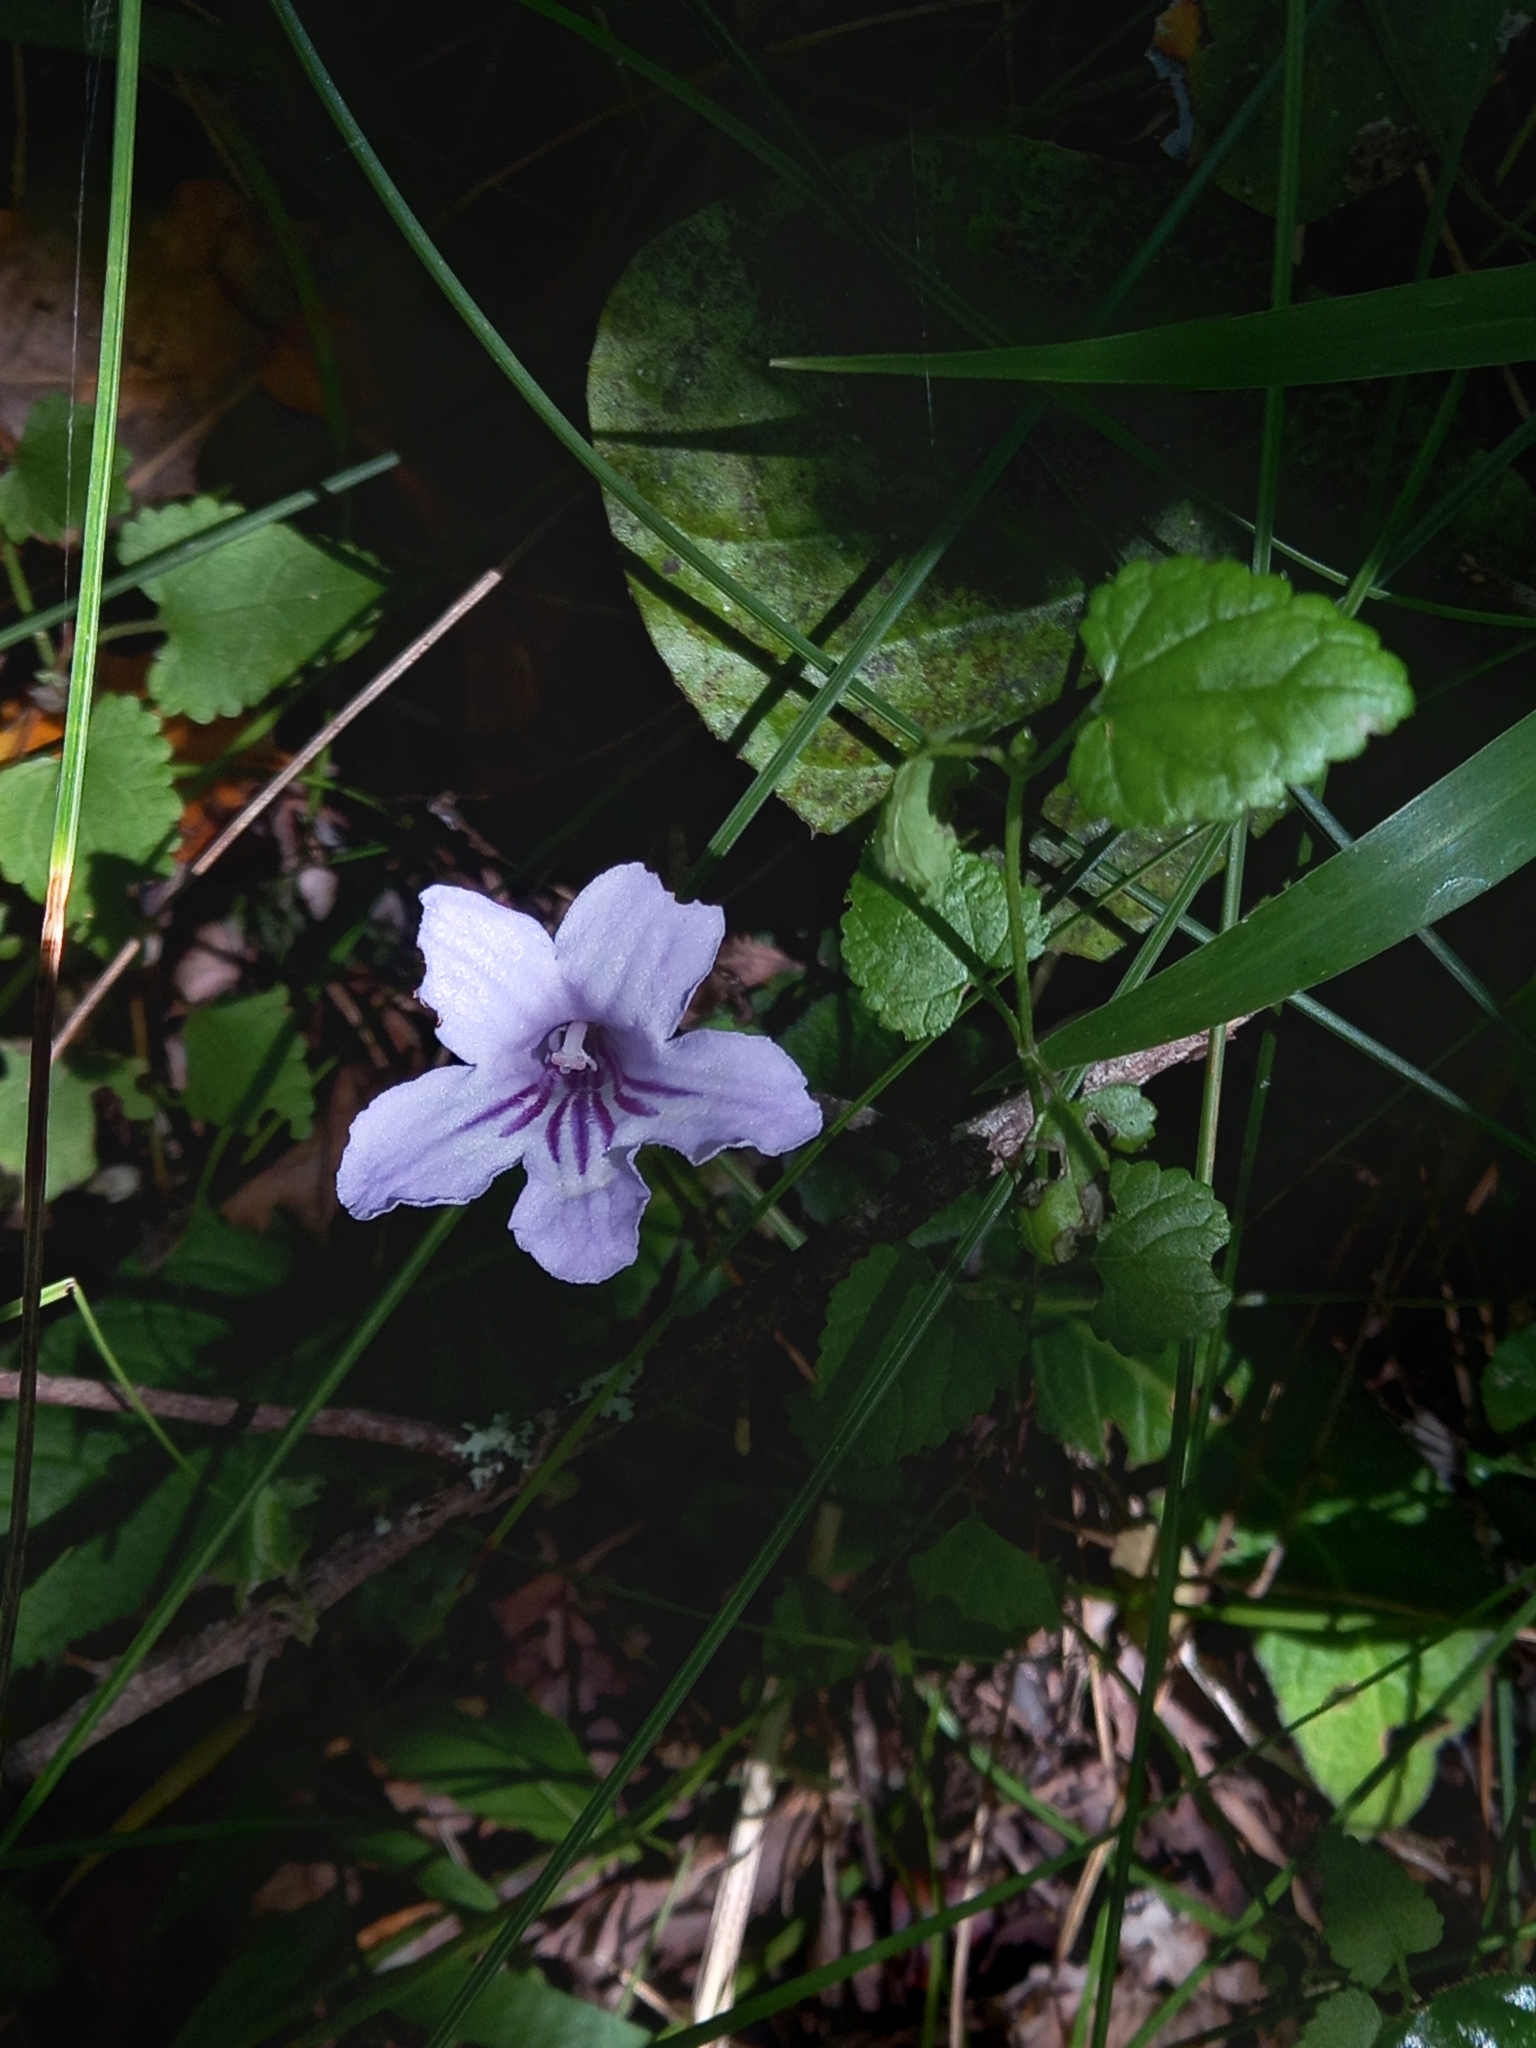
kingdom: Plantae
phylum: Tracheophyta
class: Magnoliopsida
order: Lamiales
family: Gesneriaceae
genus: Streptocarpus
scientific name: Streptocarpus rexii
